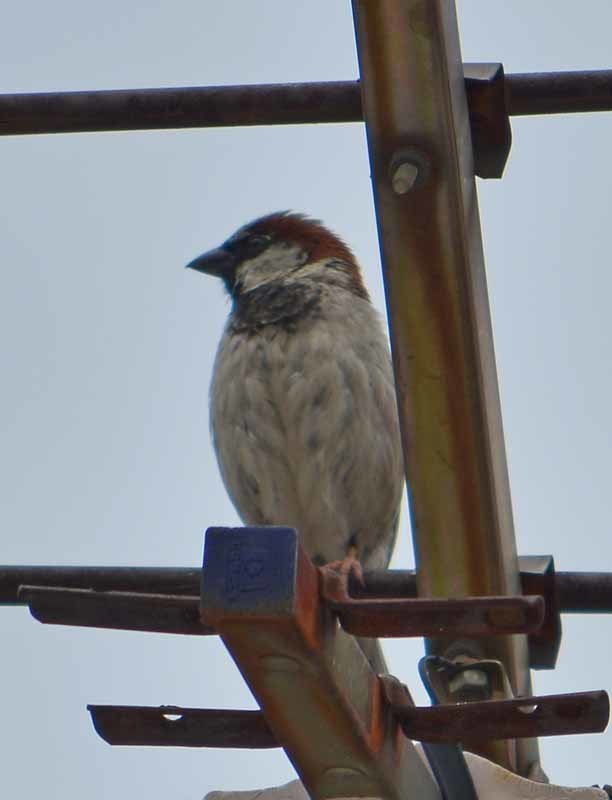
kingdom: Animalia
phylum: Chordata
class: Aves
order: Passeriformes
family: Passeridae
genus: Passer
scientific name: Passer domesticus
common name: House sparrow
